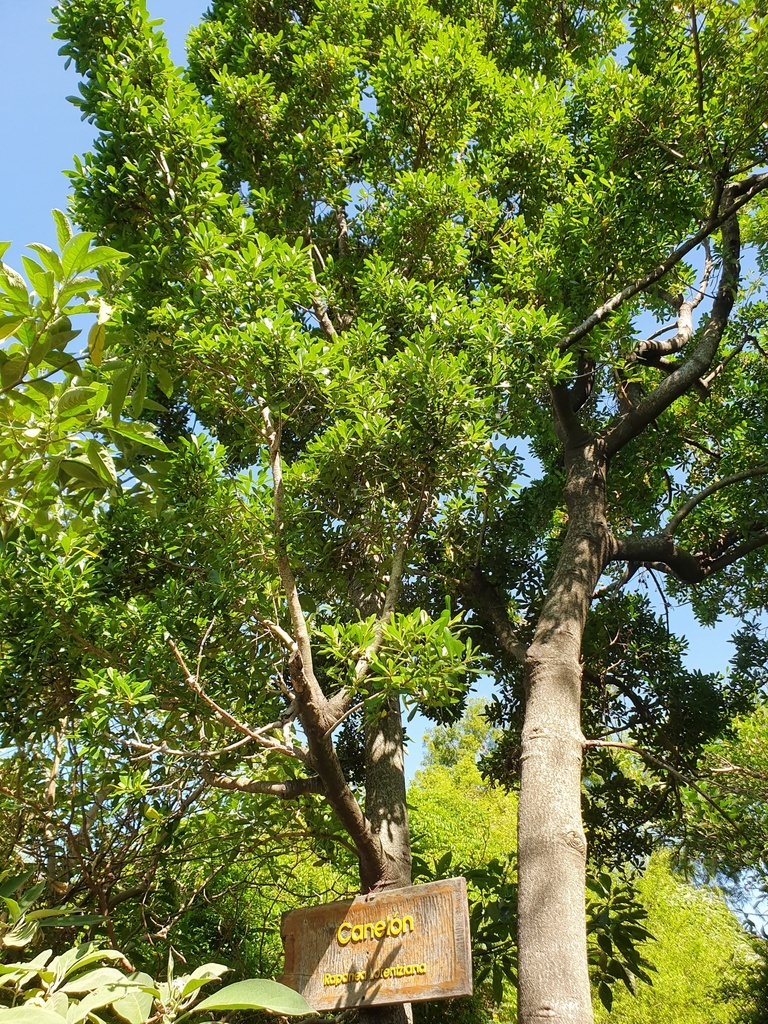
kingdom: Plantae
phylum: Tracheophyta
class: Magnoliopsida
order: Ericales
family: Primulaceae
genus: Myrsine
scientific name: Myrsine lorentziana
